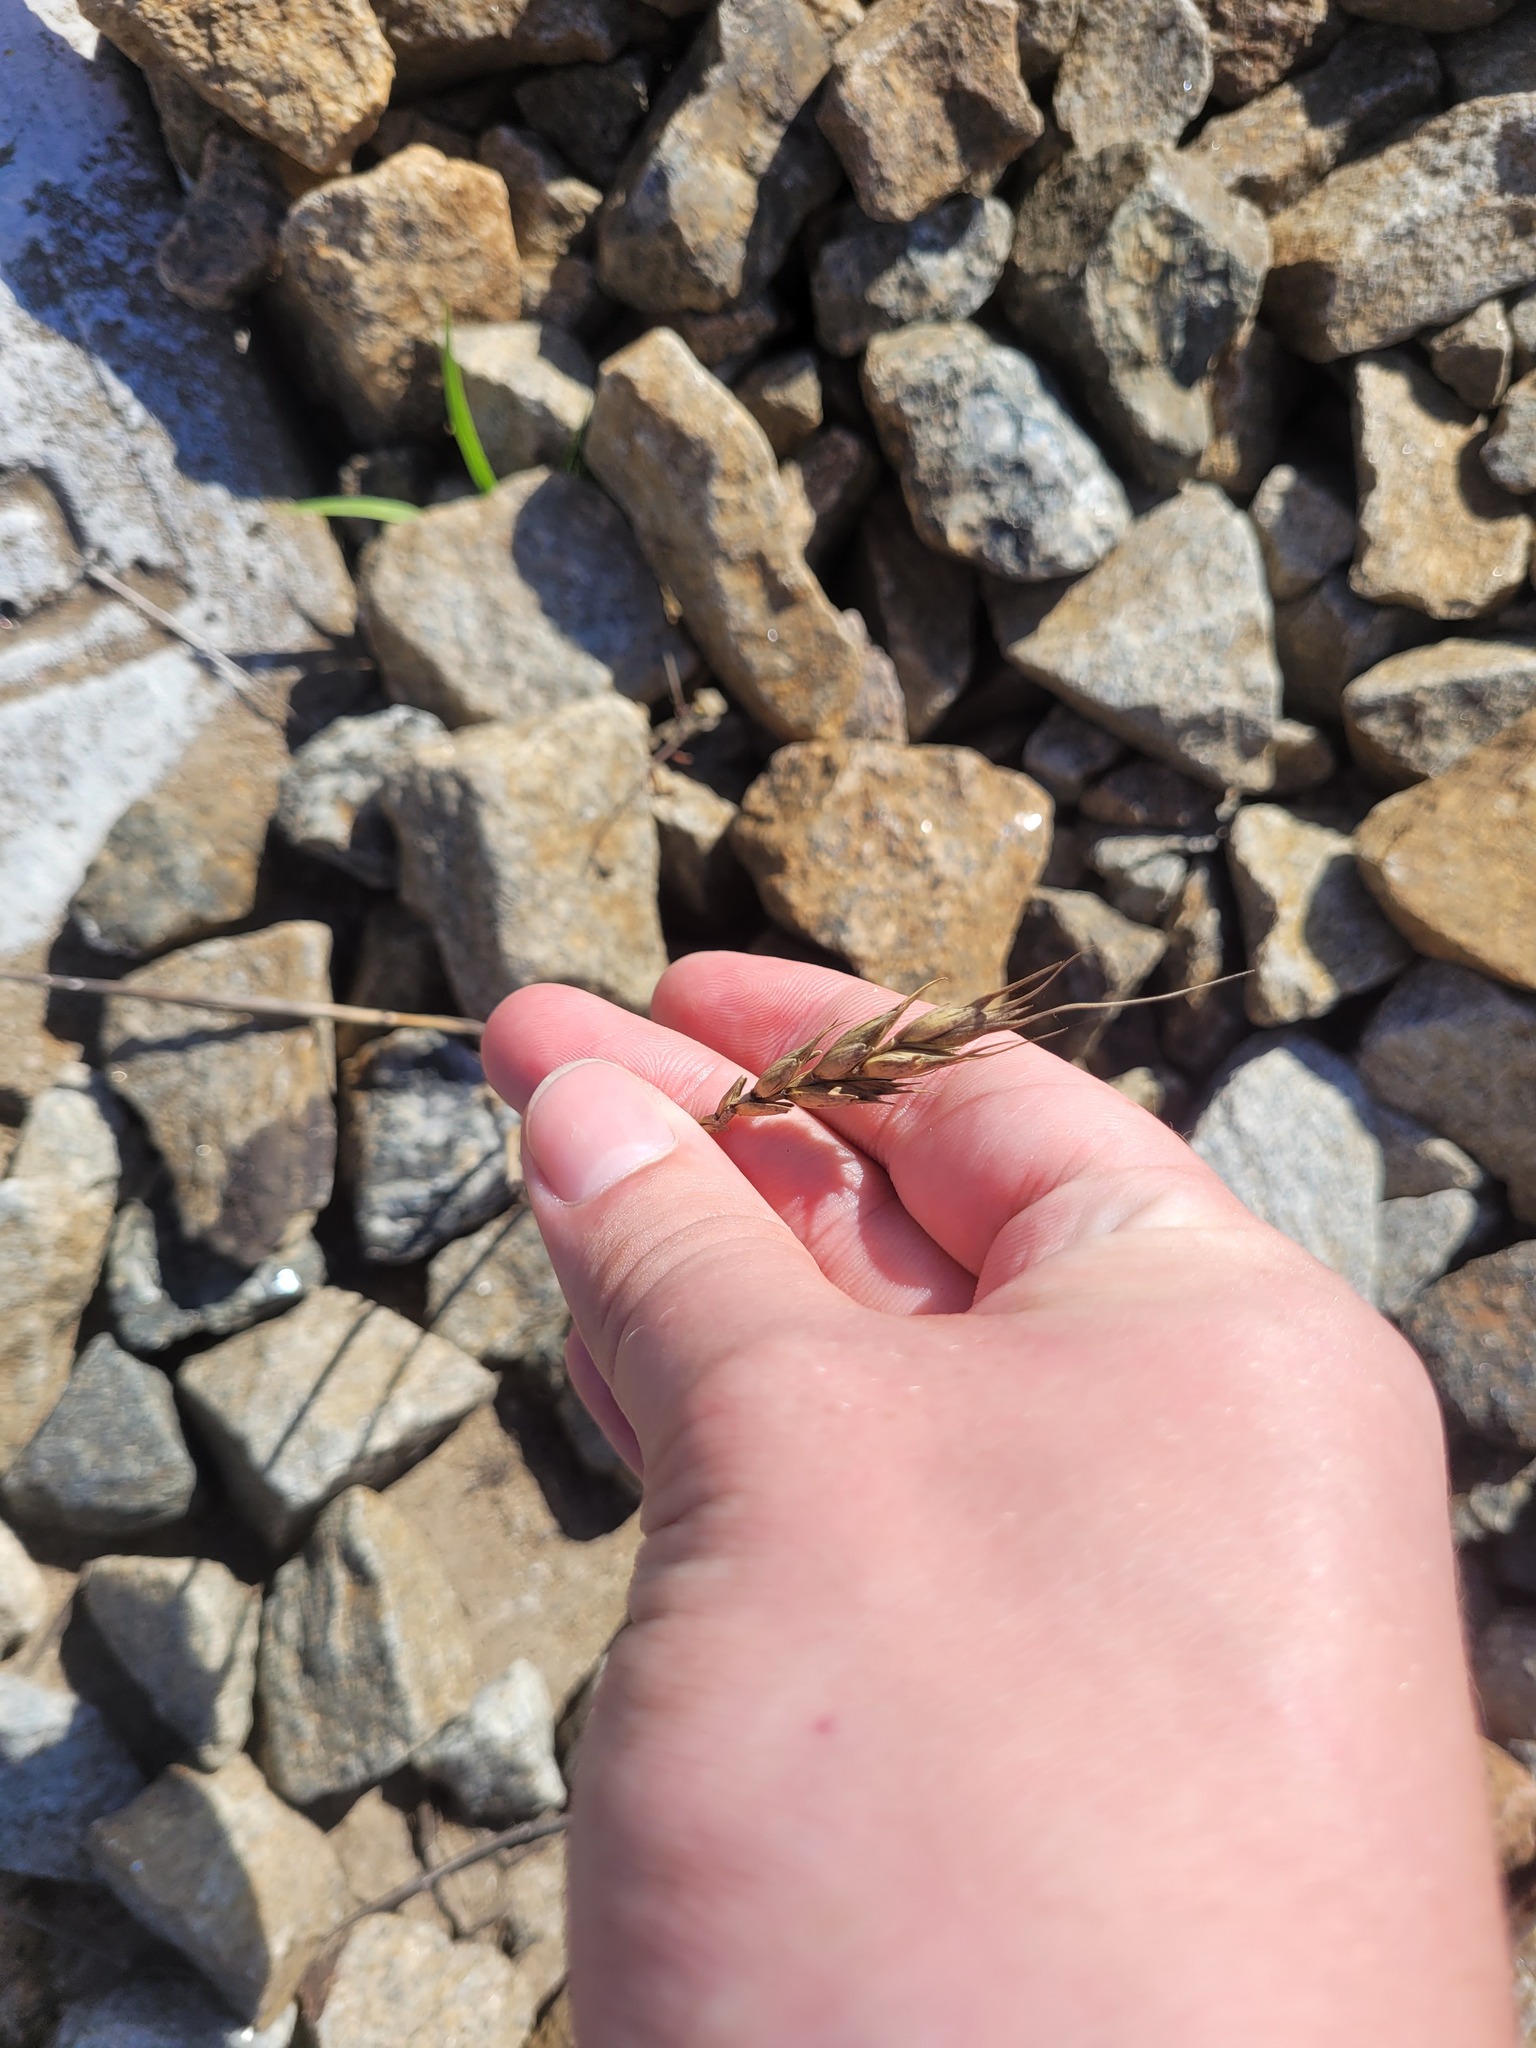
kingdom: Plantae
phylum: Tracheophyta
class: Liliopsida
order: Poales
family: Poaceae
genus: Triticum
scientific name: Triticum aestivum
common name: Common wheat
